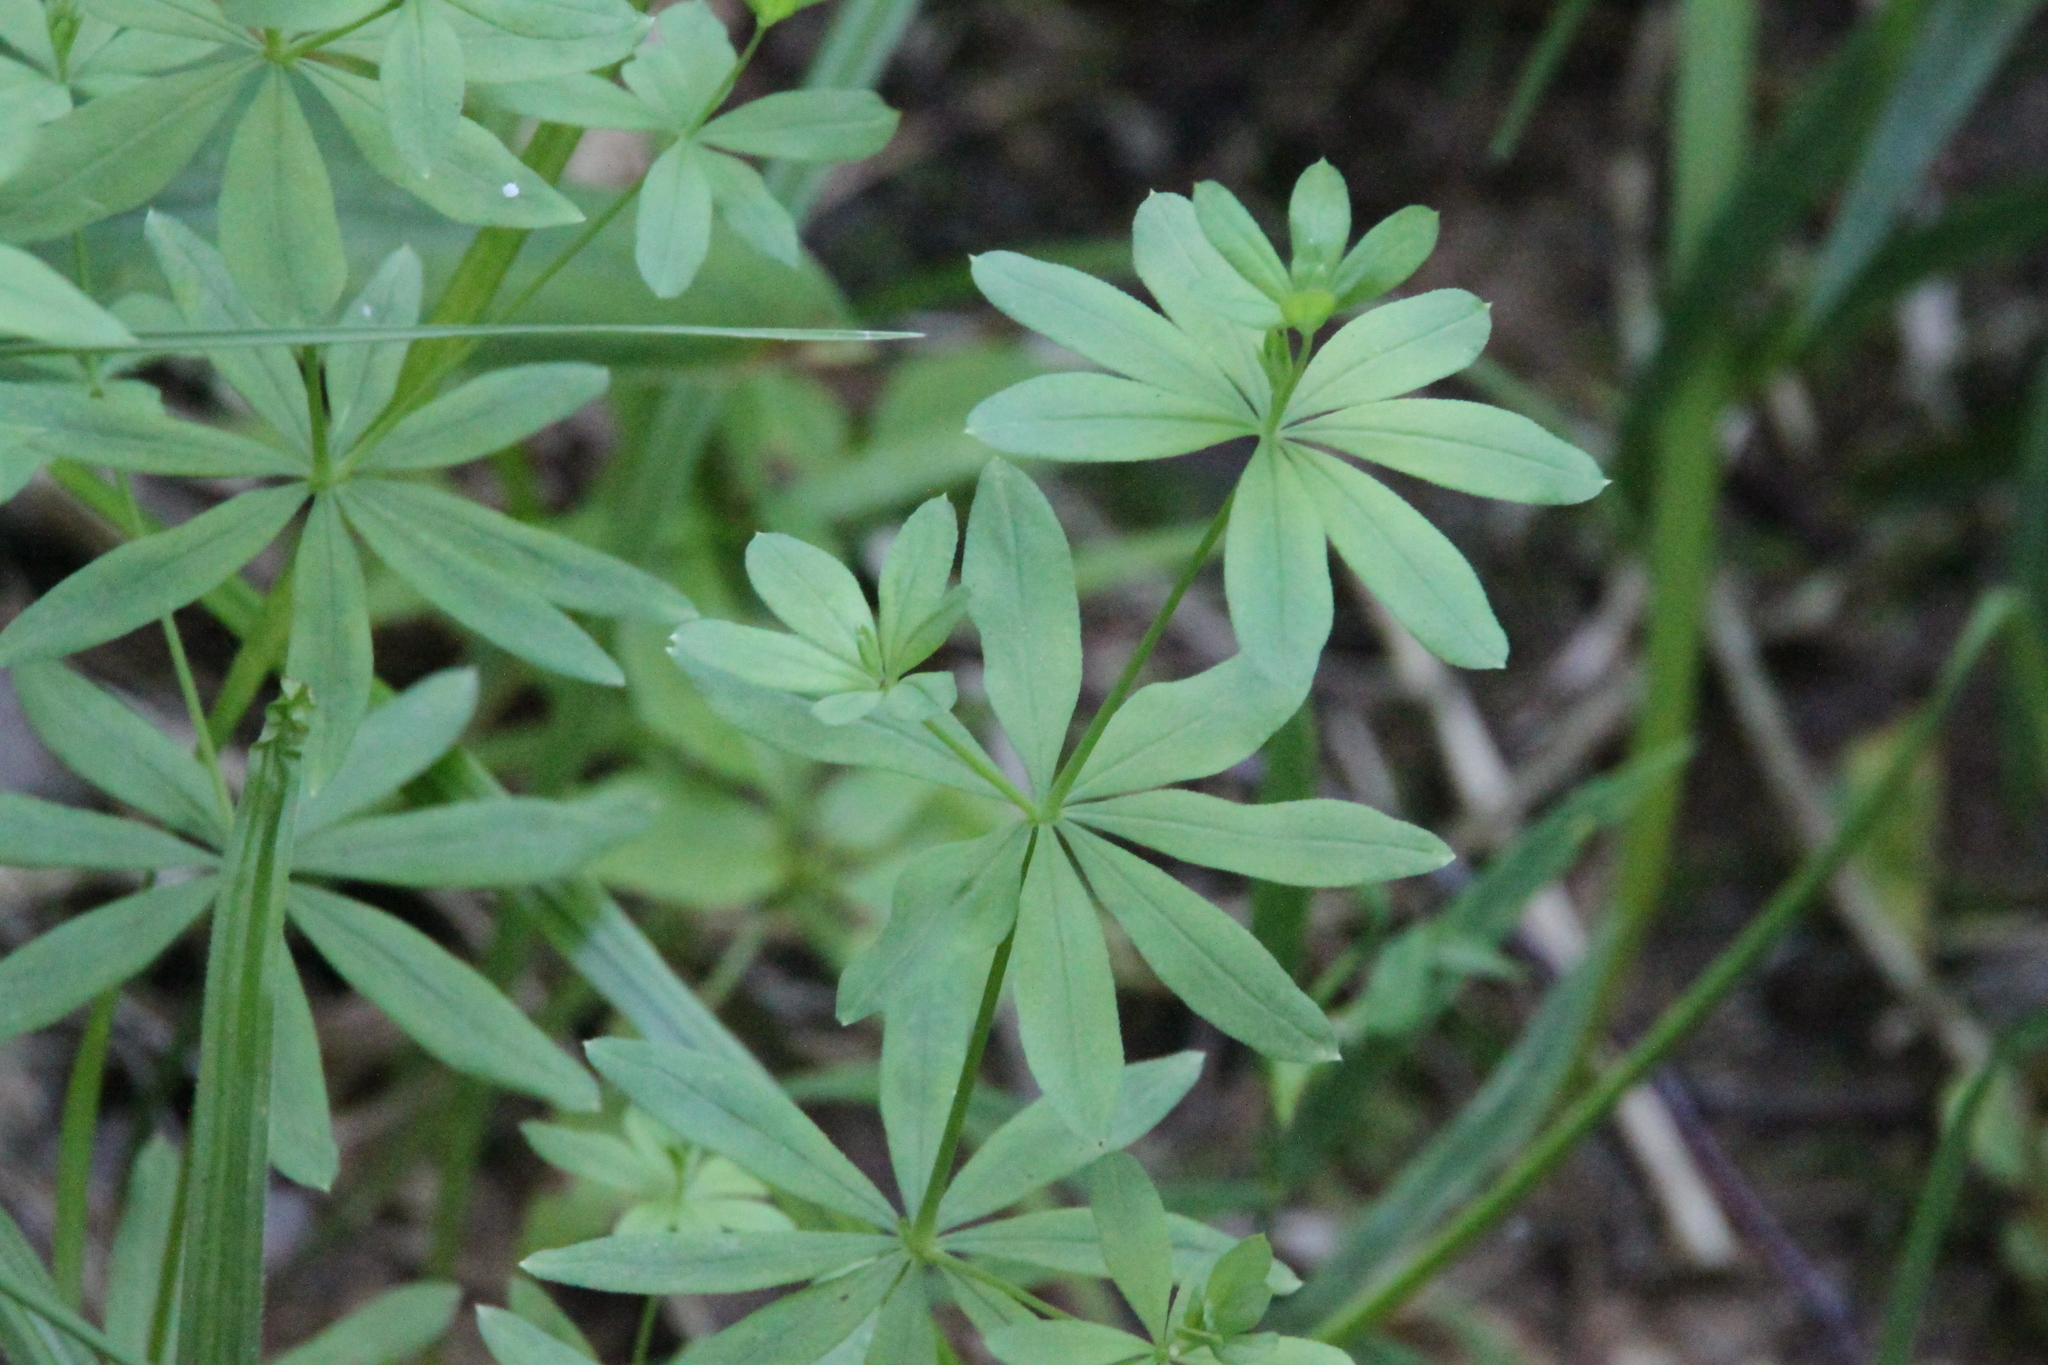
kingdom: Plantae
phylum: Tracheophyta
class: Magnoliopsida
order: Gentianales
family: Rubiaceae
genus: Galium
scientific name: Galium intermedium
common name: Bedstraw
